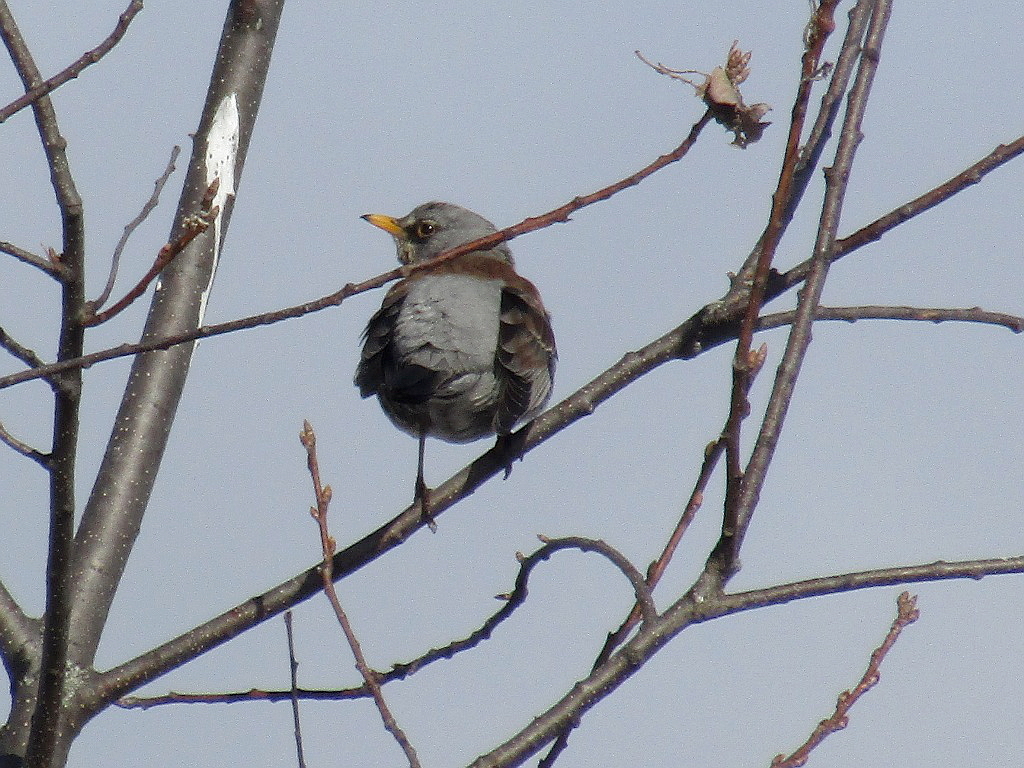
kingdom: Animalia
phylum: Chordata
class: Aves
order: Passeriformes
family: Turdidae
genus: Turdus
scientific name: Turdus pilaris
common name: Fieldfare
